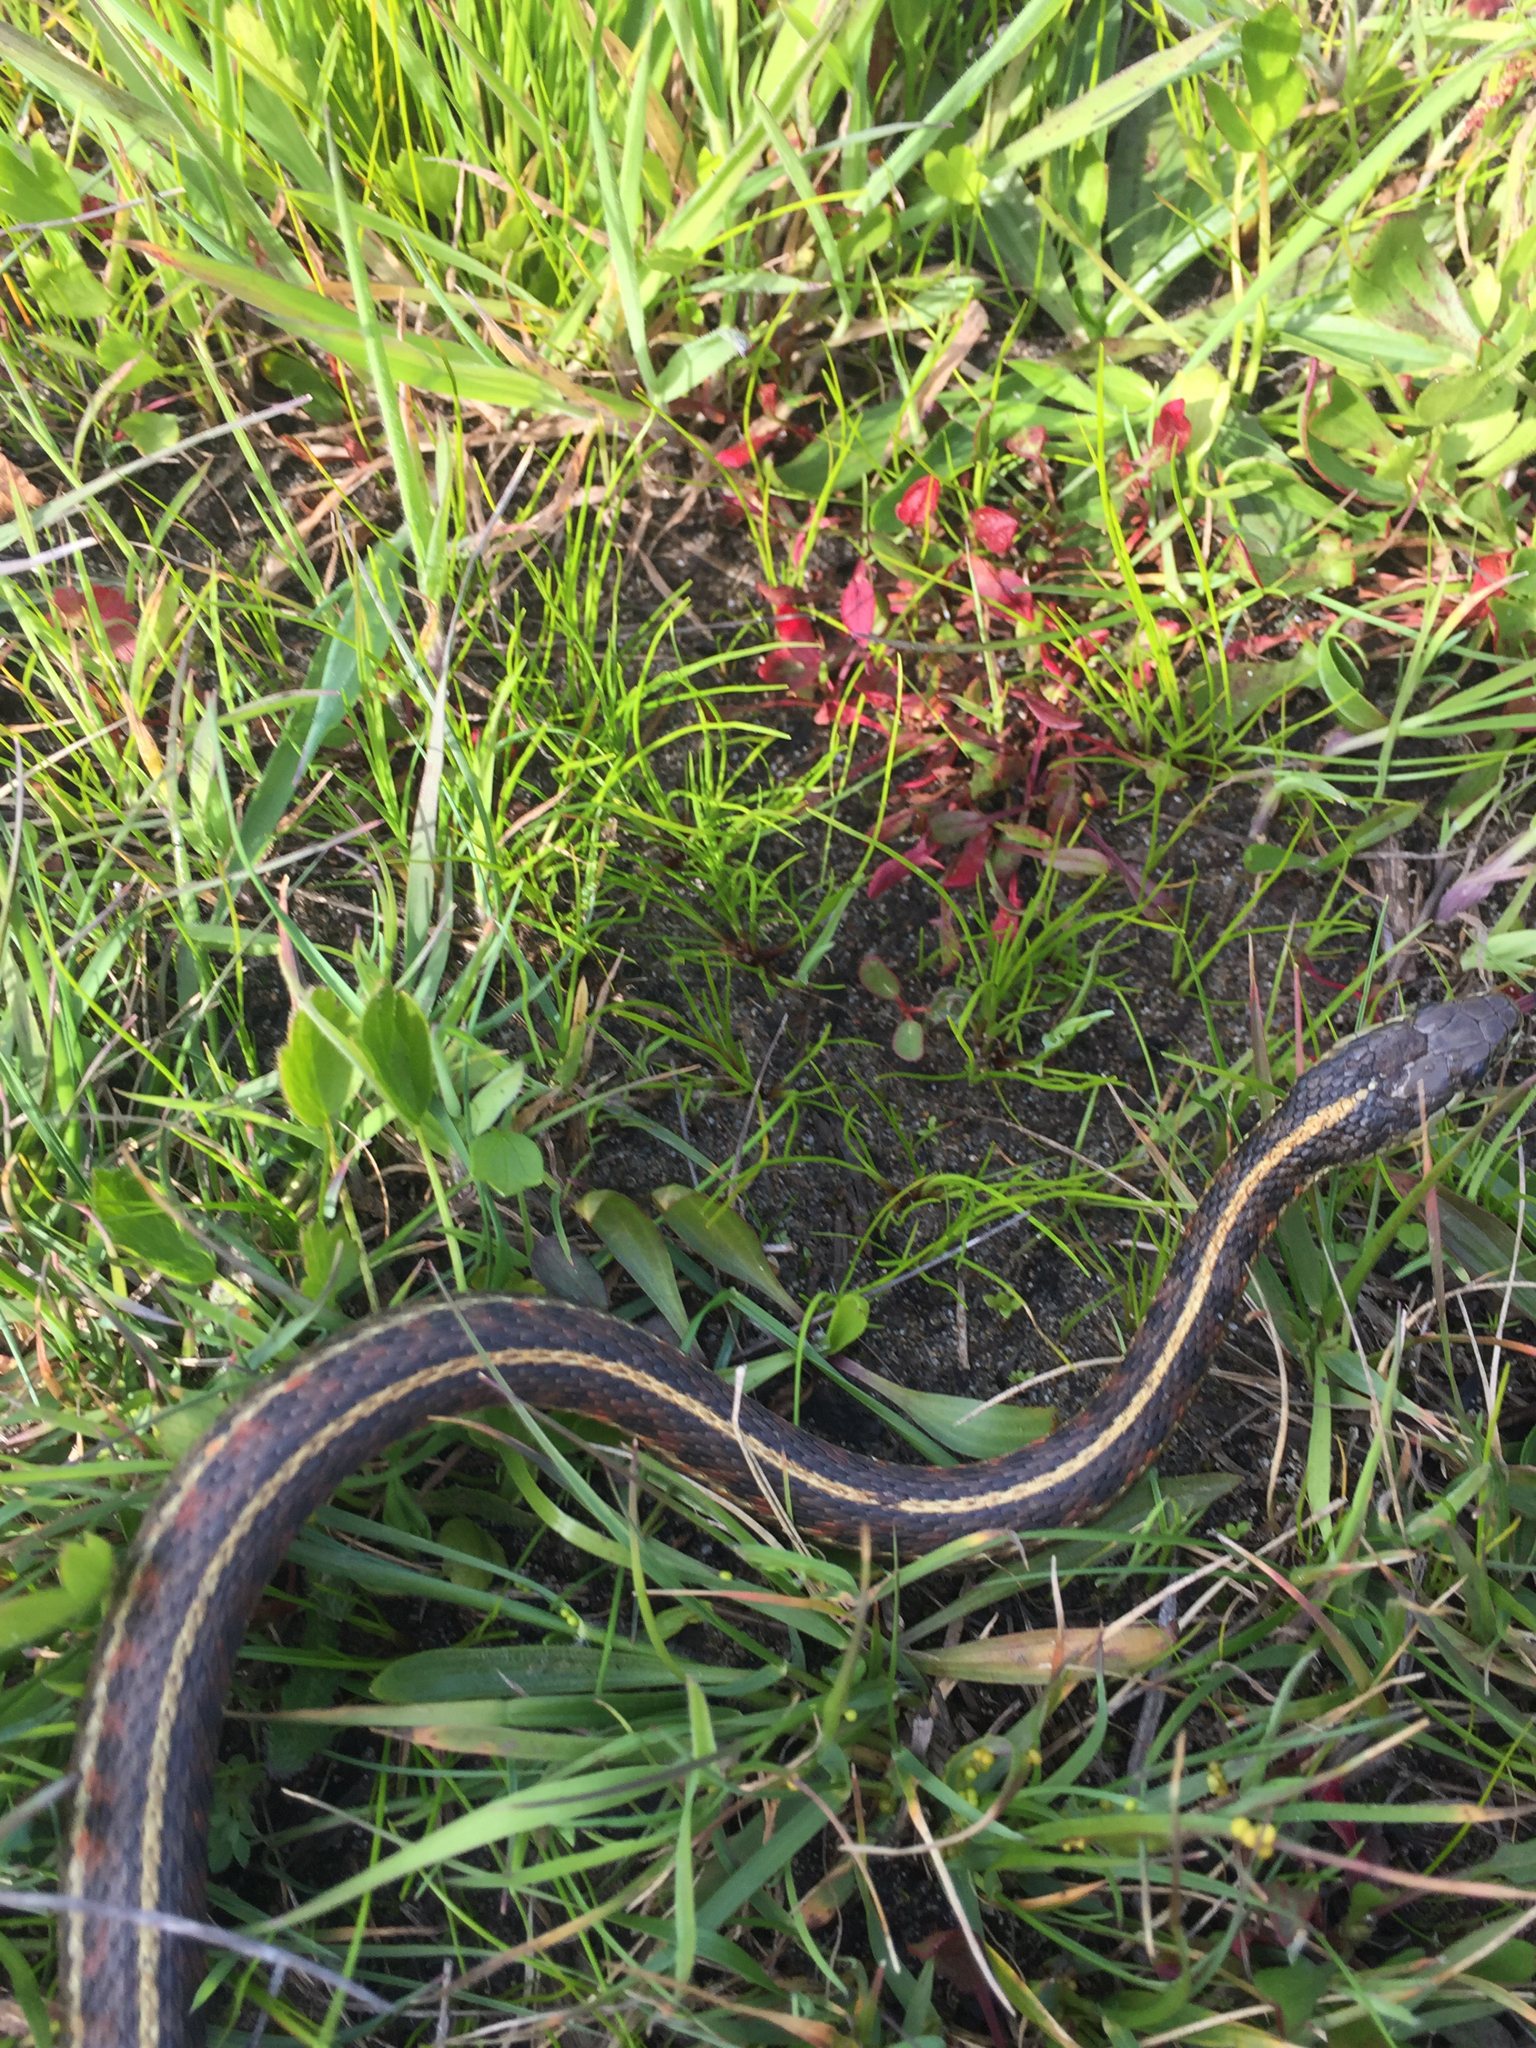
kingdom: Animalia
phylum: Chordata
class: Squamata
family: Colubridae
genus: Thamnophis
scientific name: Thamnophis elegans
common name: Western terrestrial garter snake
